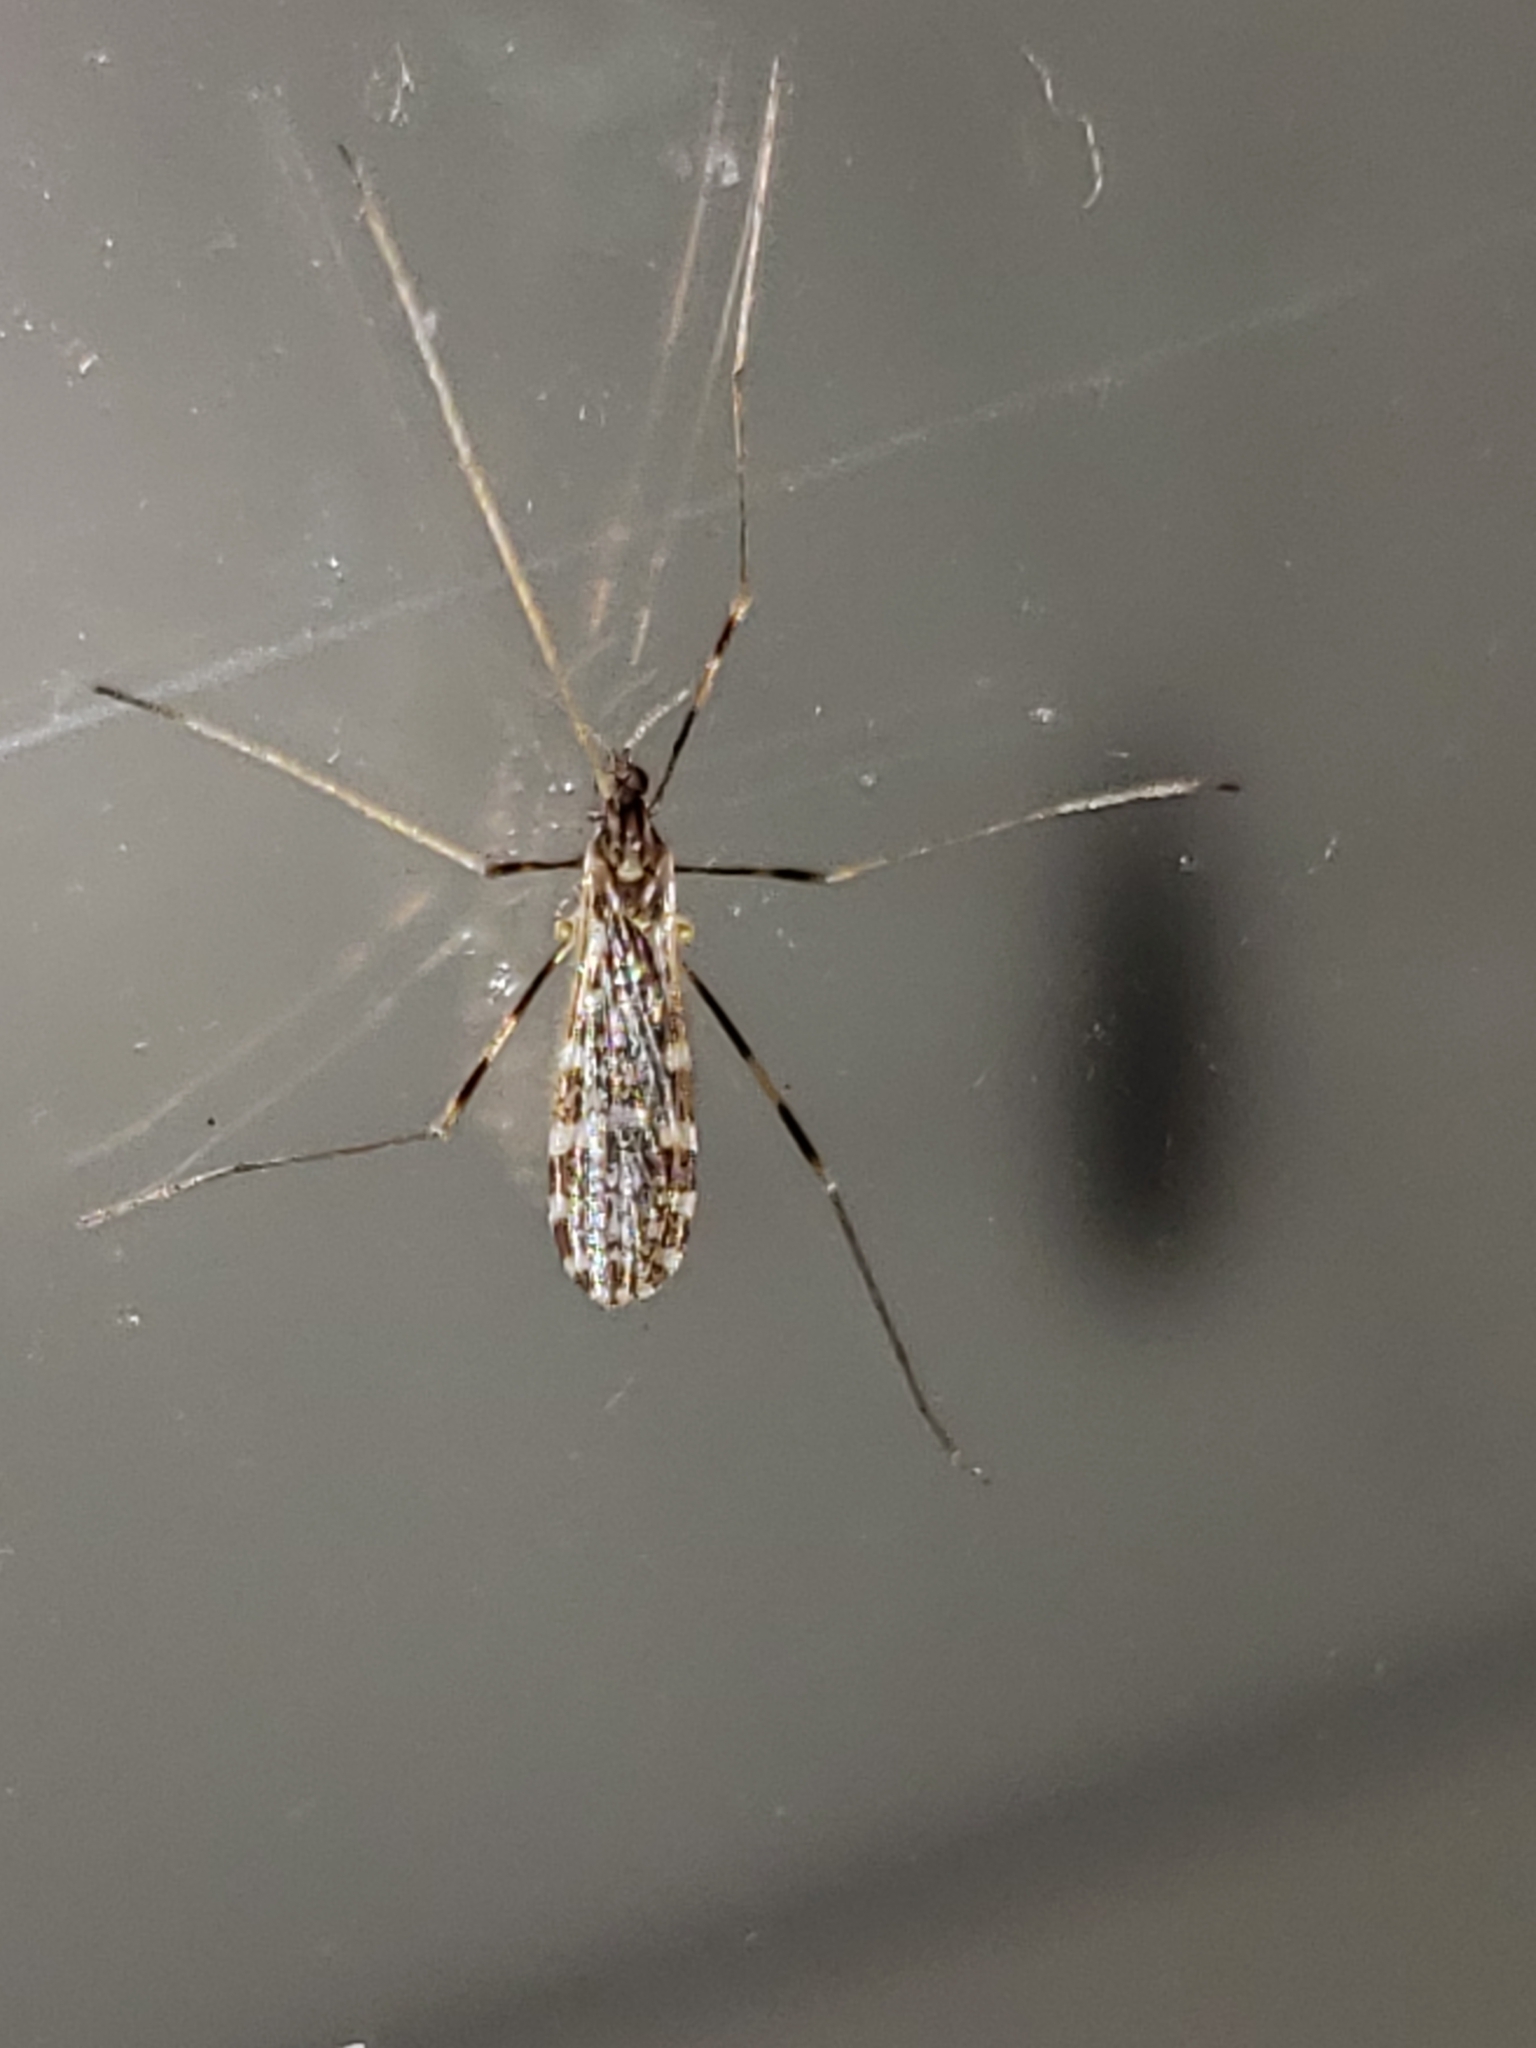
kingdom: Animalia
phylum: Arthropoda
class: Insecta
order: Diptera
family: Limoniidae
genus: Erioptera
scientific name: Erioptera caliptera
